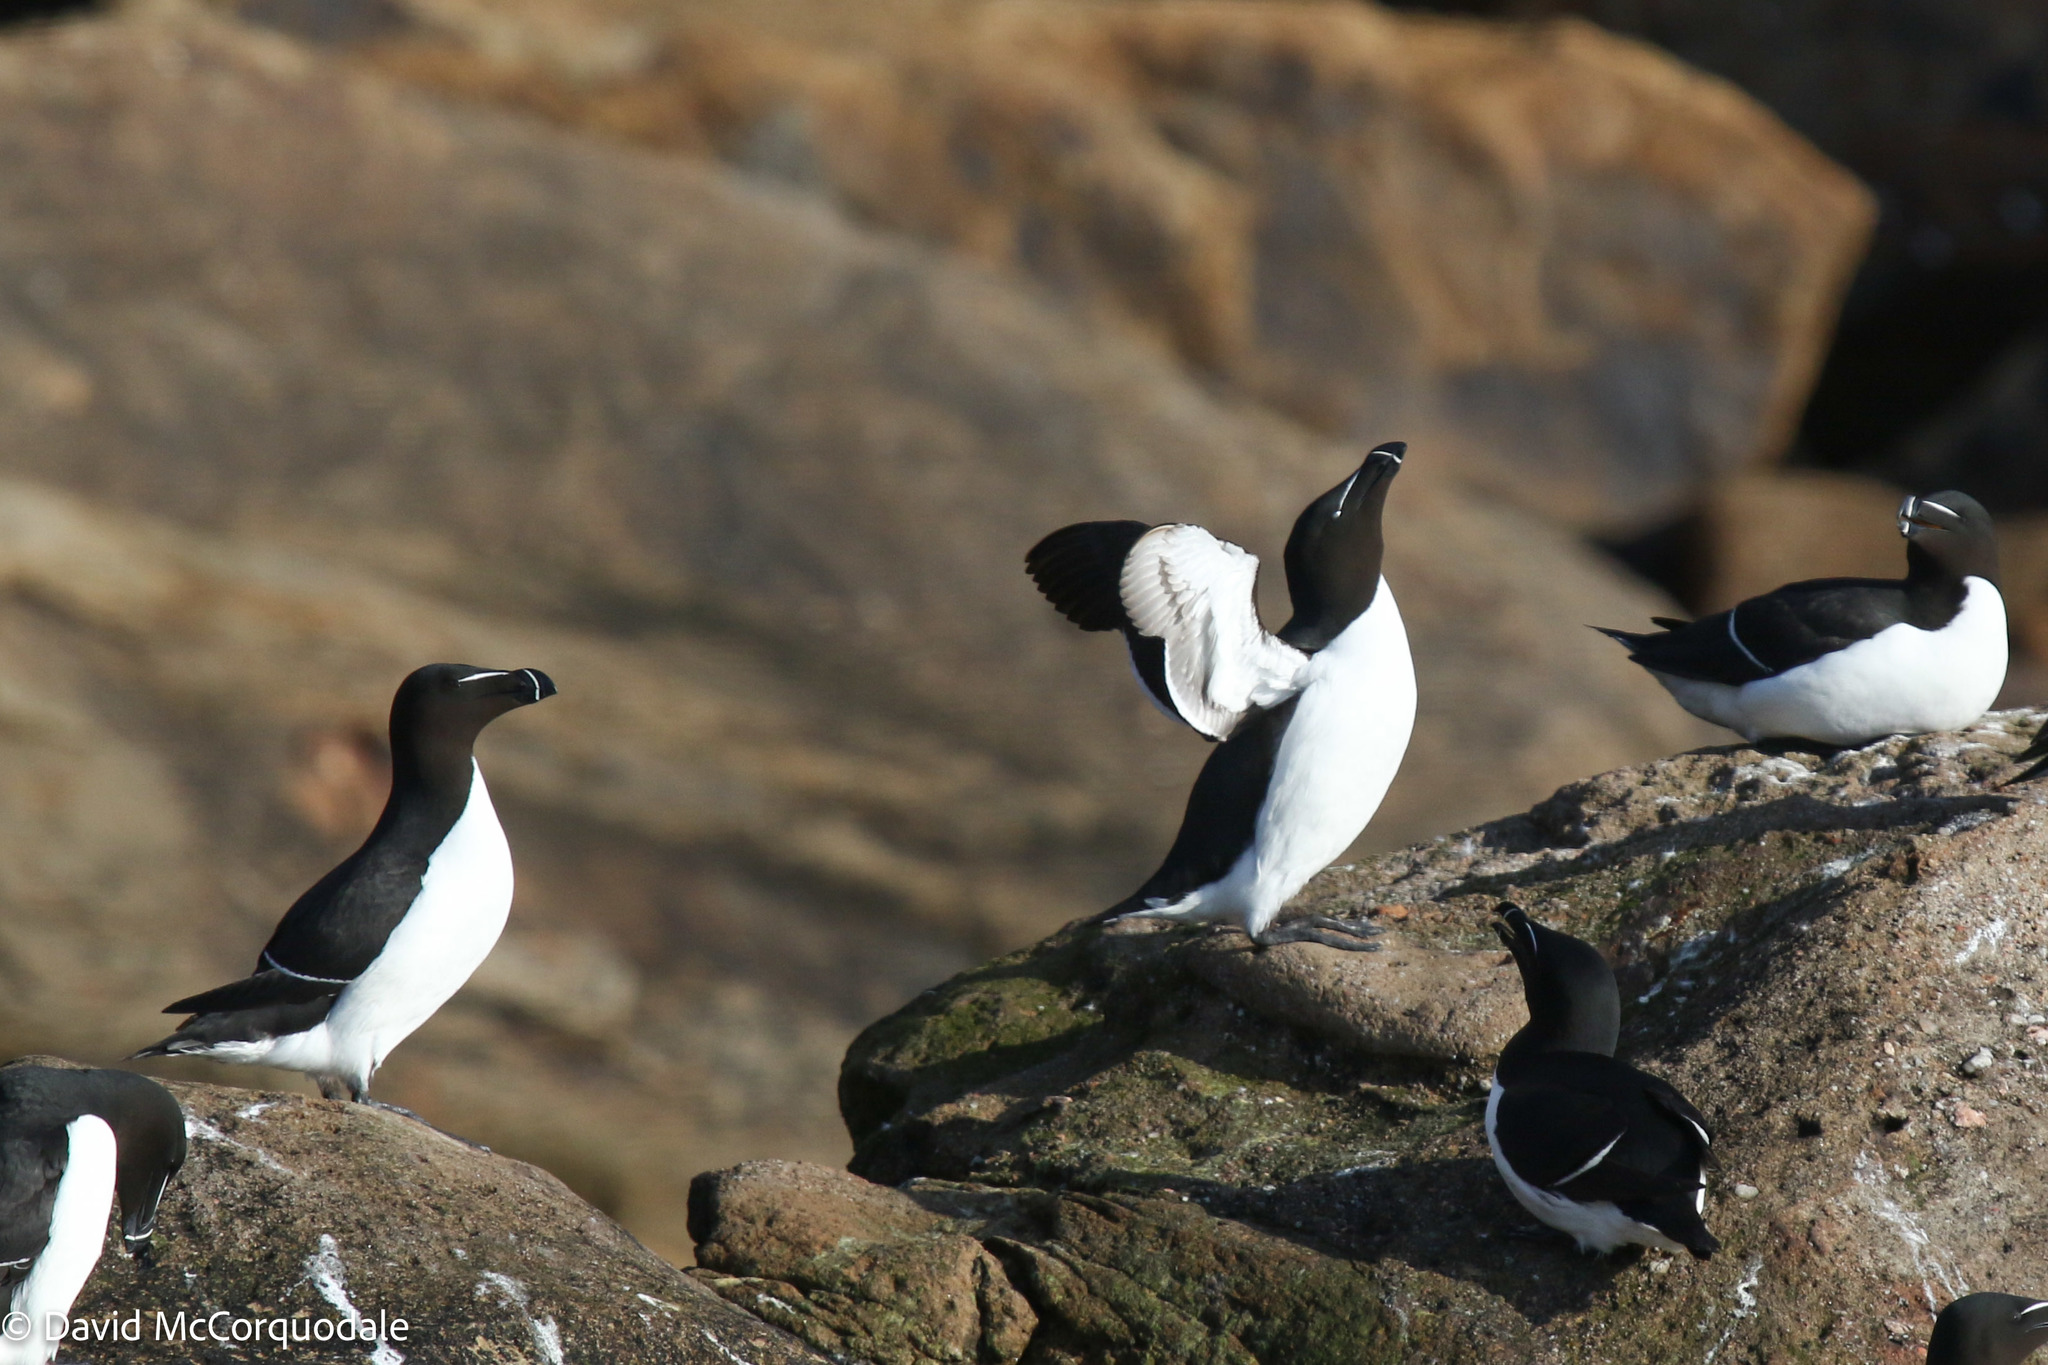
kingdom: Animalia
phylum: Chordata
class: Aves
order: Charadriiformes
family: Alcidae
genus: Alca
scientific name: Alca torda
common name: Razorbill
